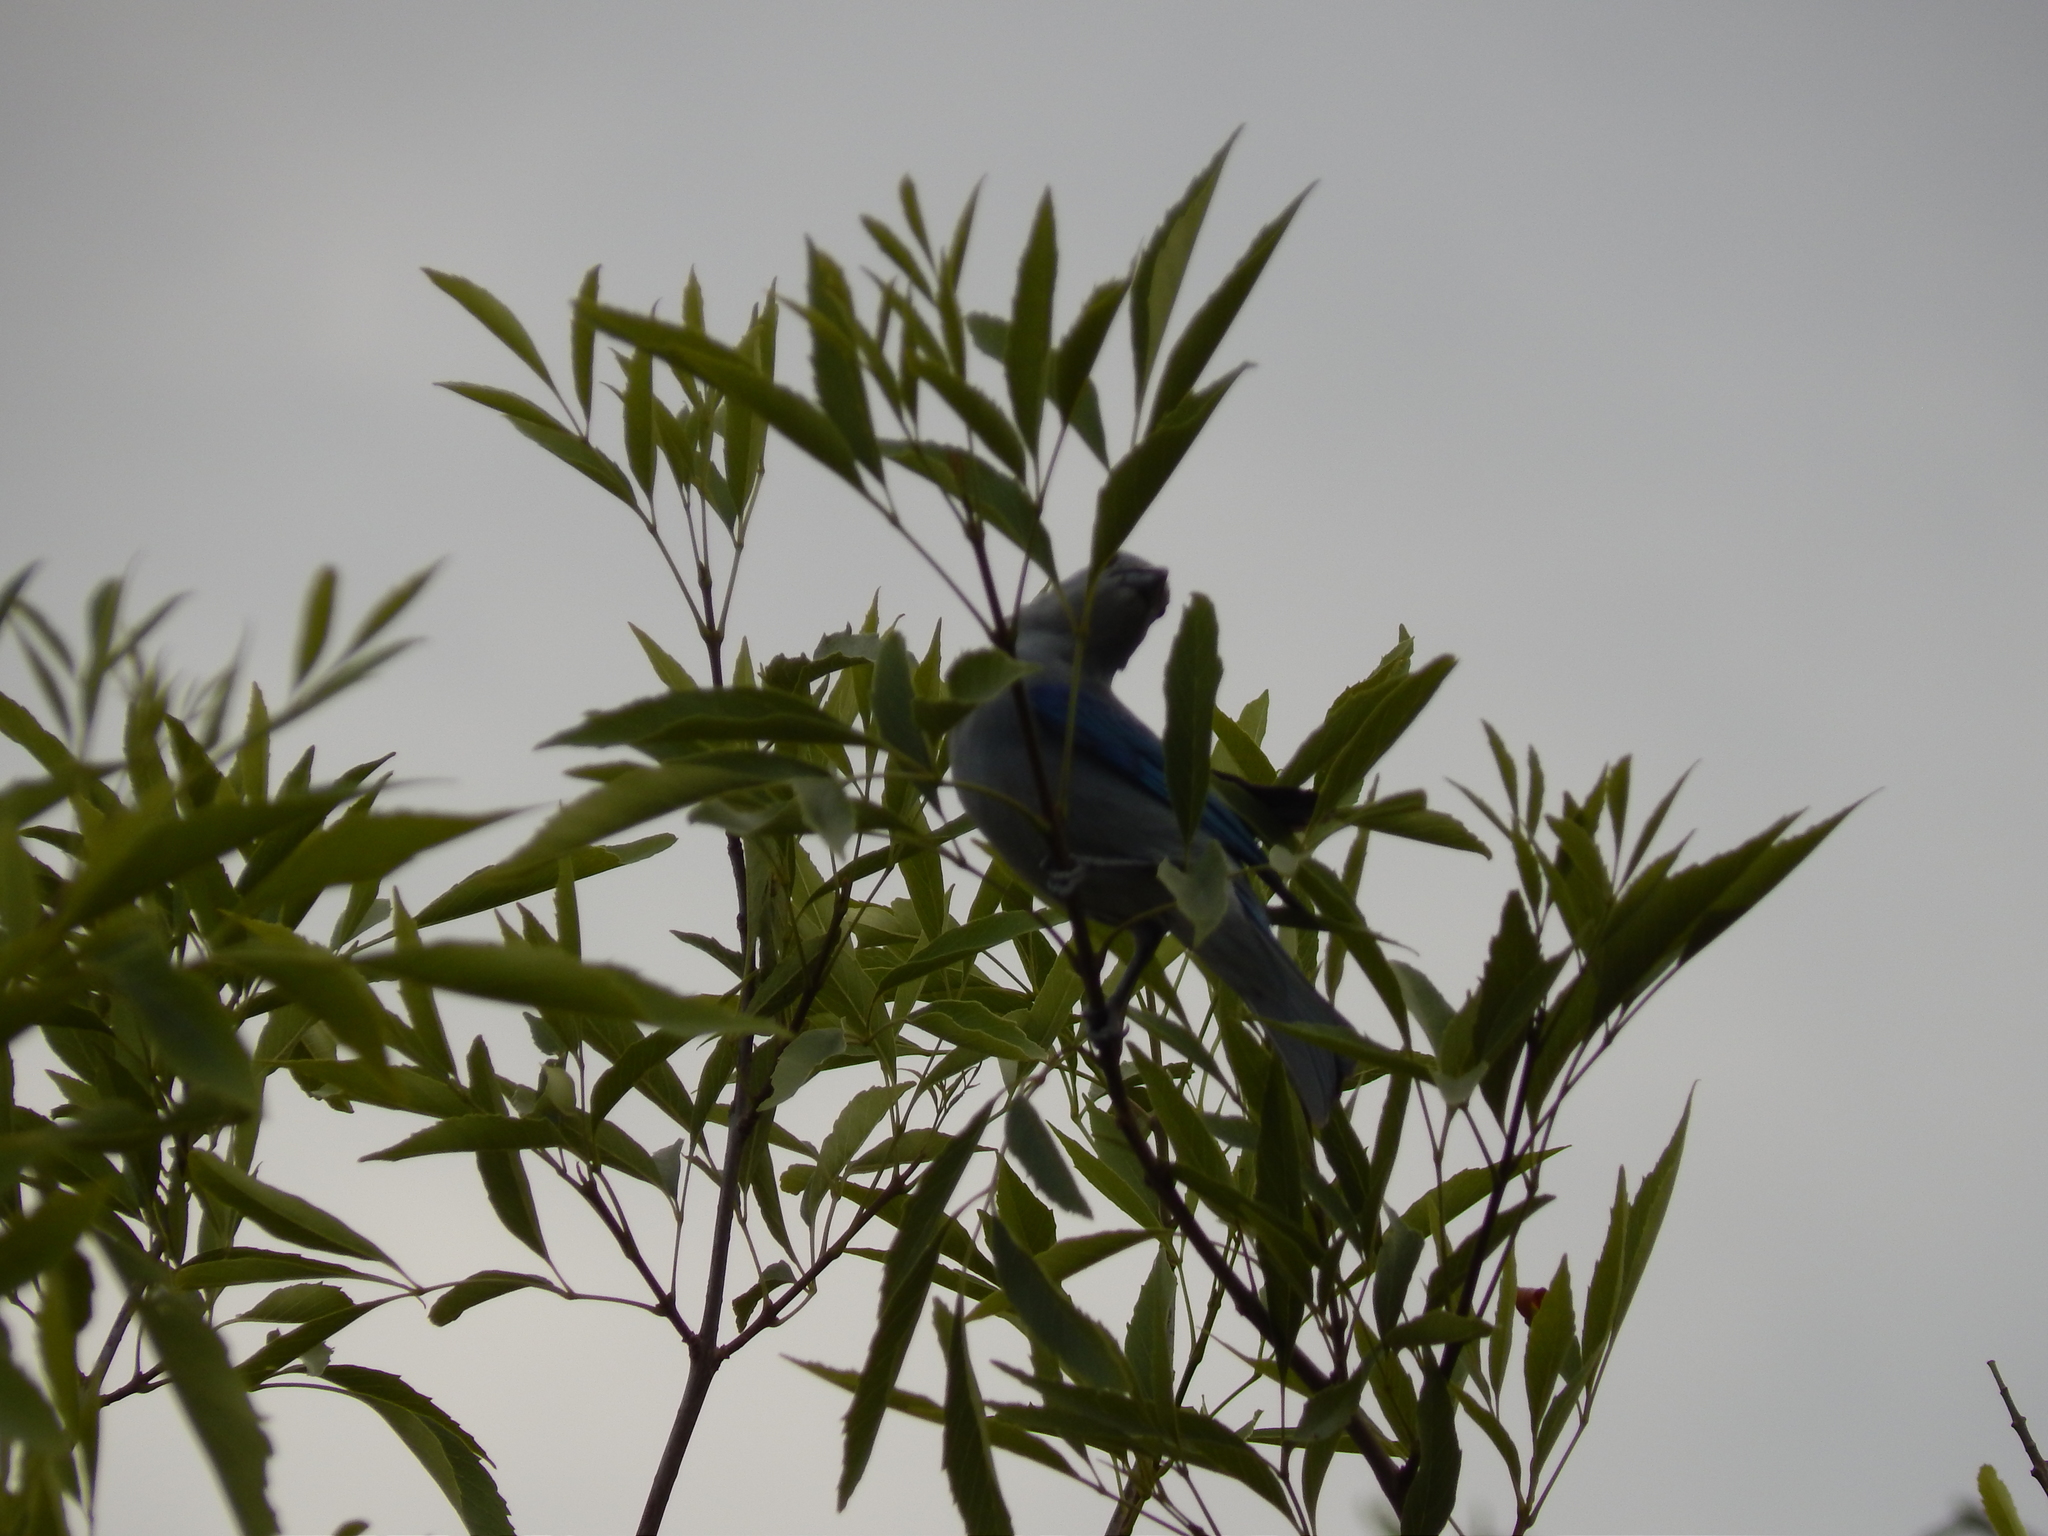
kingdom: Animalia
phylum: Chordata
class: Aves
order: Passeriformes
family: Thraupidae
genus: Thraupis
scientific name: Thraupis episcopus
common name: Blue-grey tanager
